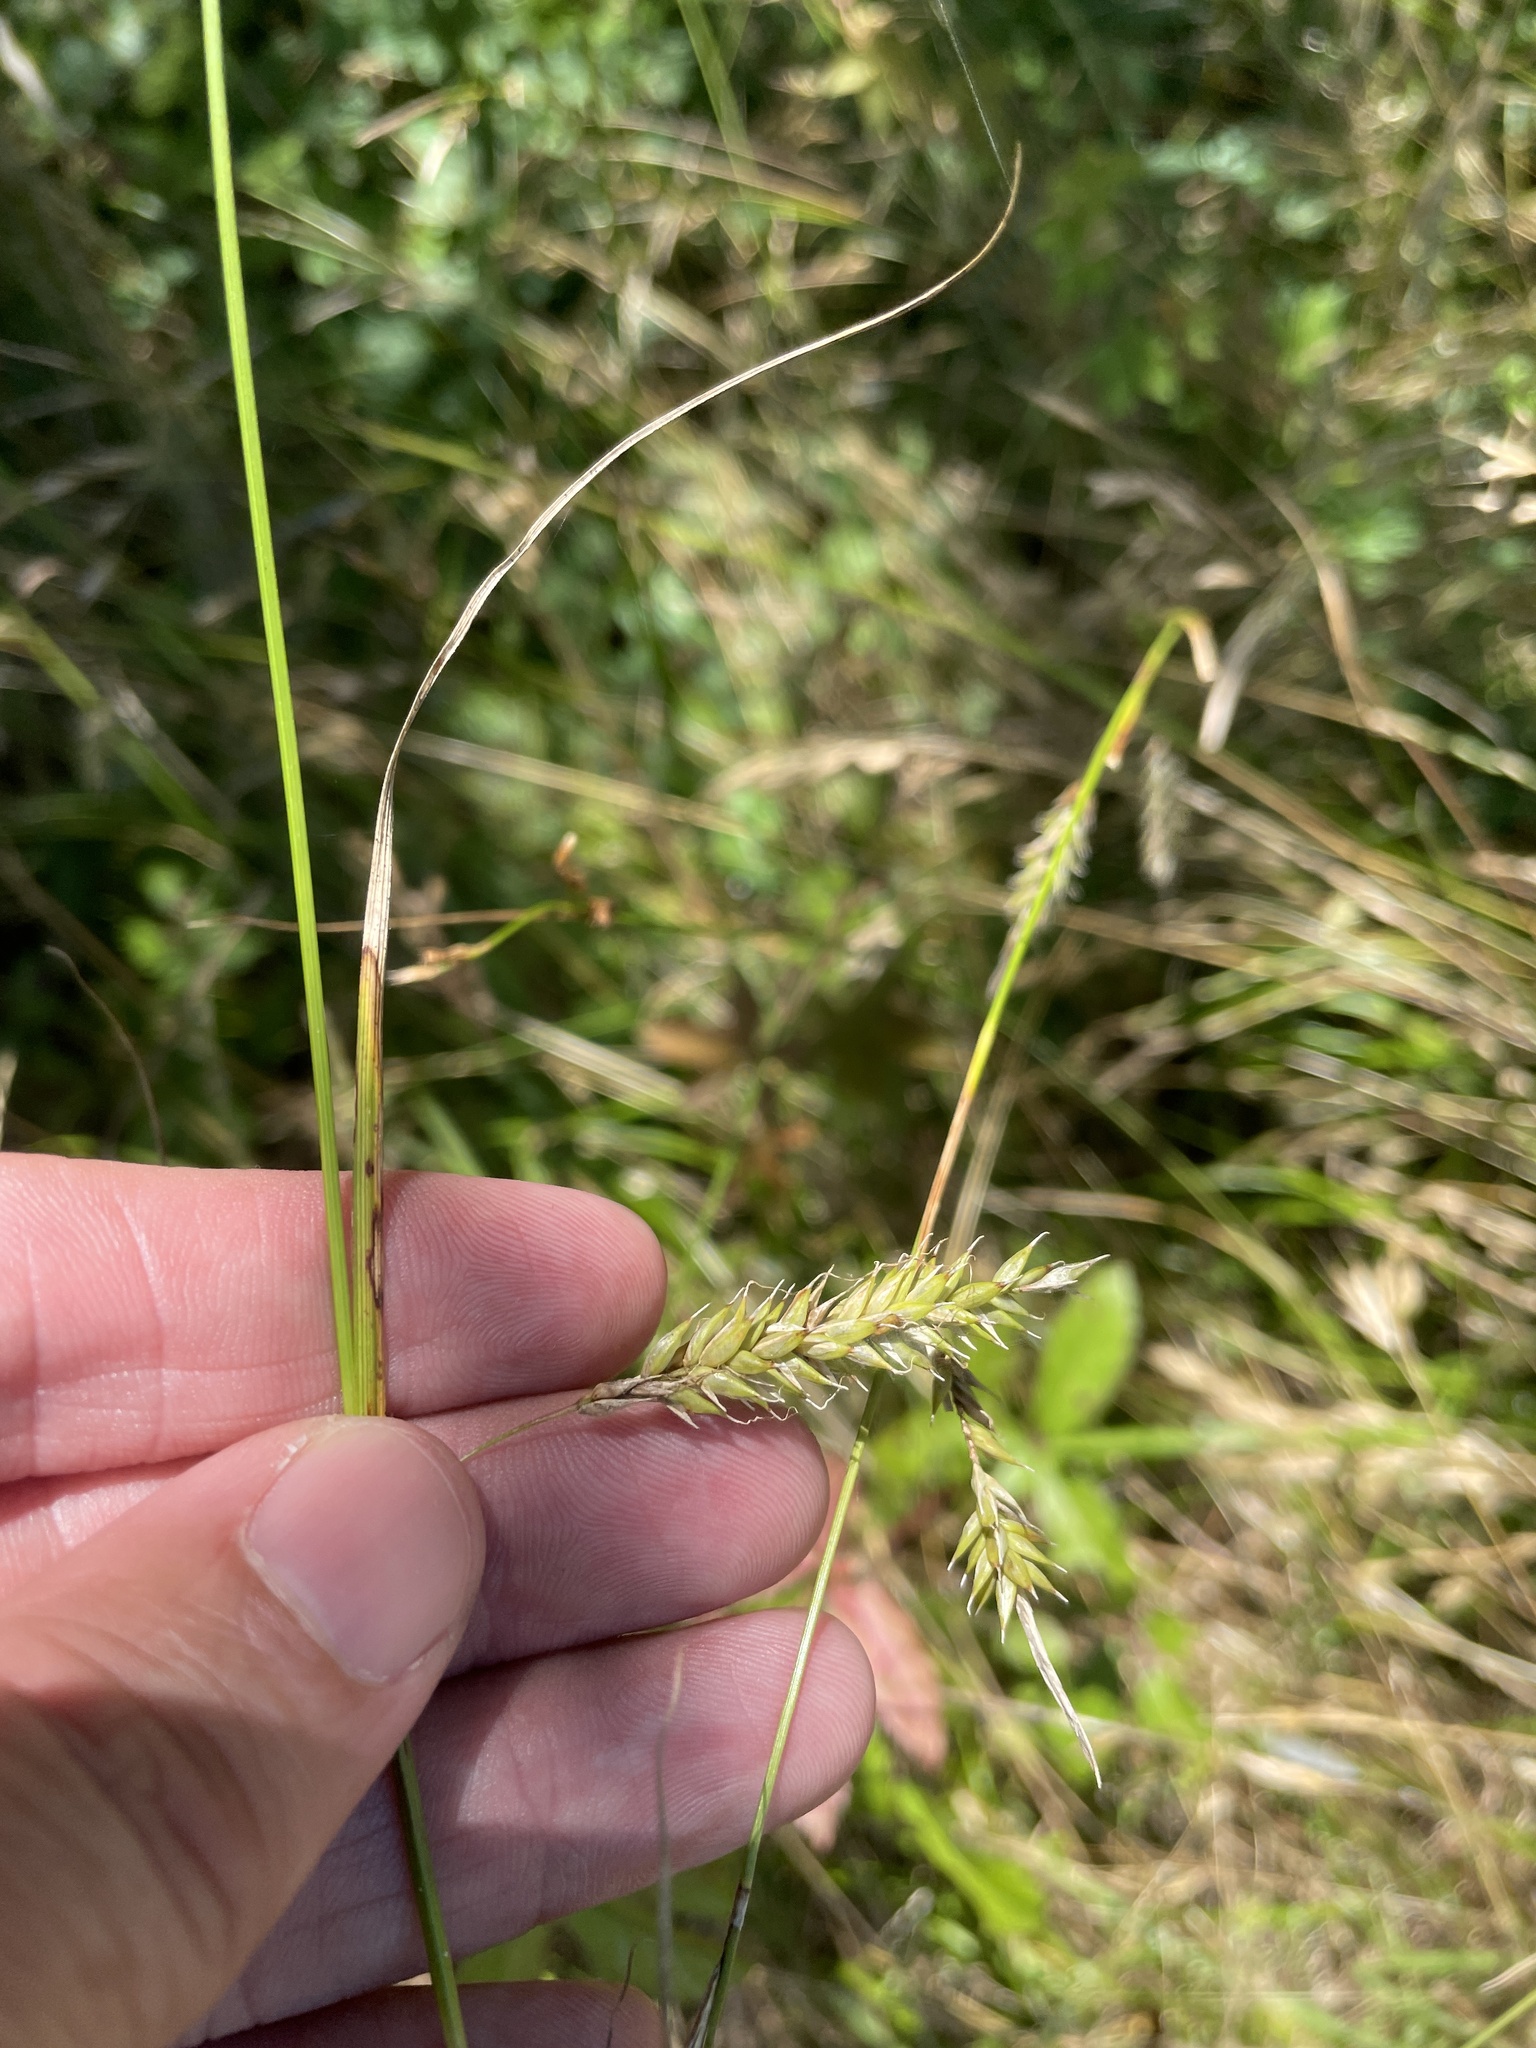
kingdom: Plantae
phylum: Tracheophyta
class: Liliopsida
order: Poales
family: Cyperaceae
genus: Carex
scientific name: Carex cherokeensis
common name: Cherokee sedge
